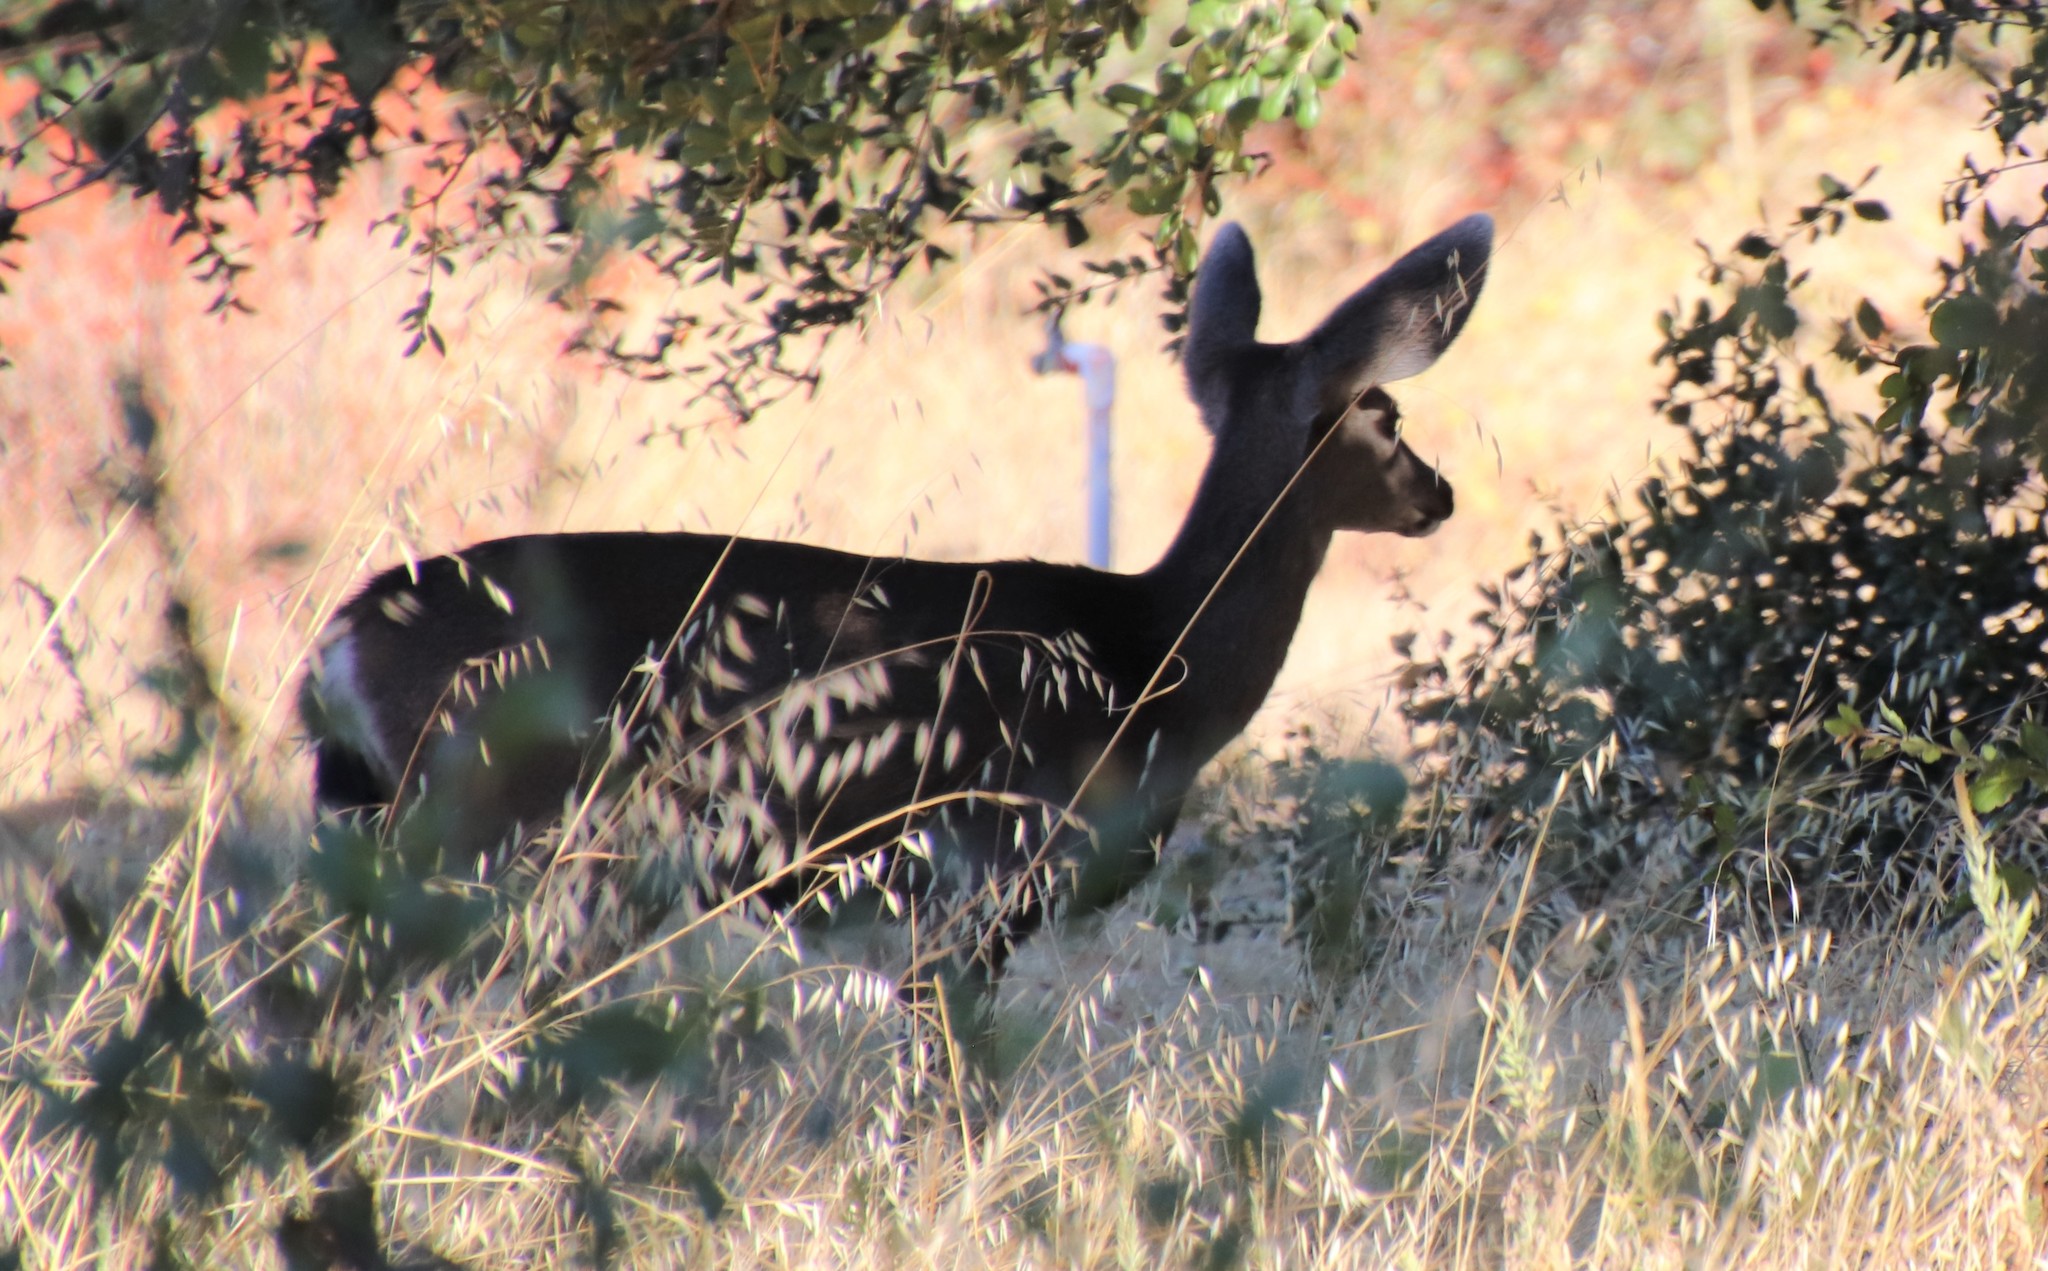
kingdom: Animalia
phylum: Chordata
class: Mammalia
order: Artiodactyla
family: Cervidae
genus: Odocoileus
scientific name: Odocoileus hemionus
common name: Mule deer
